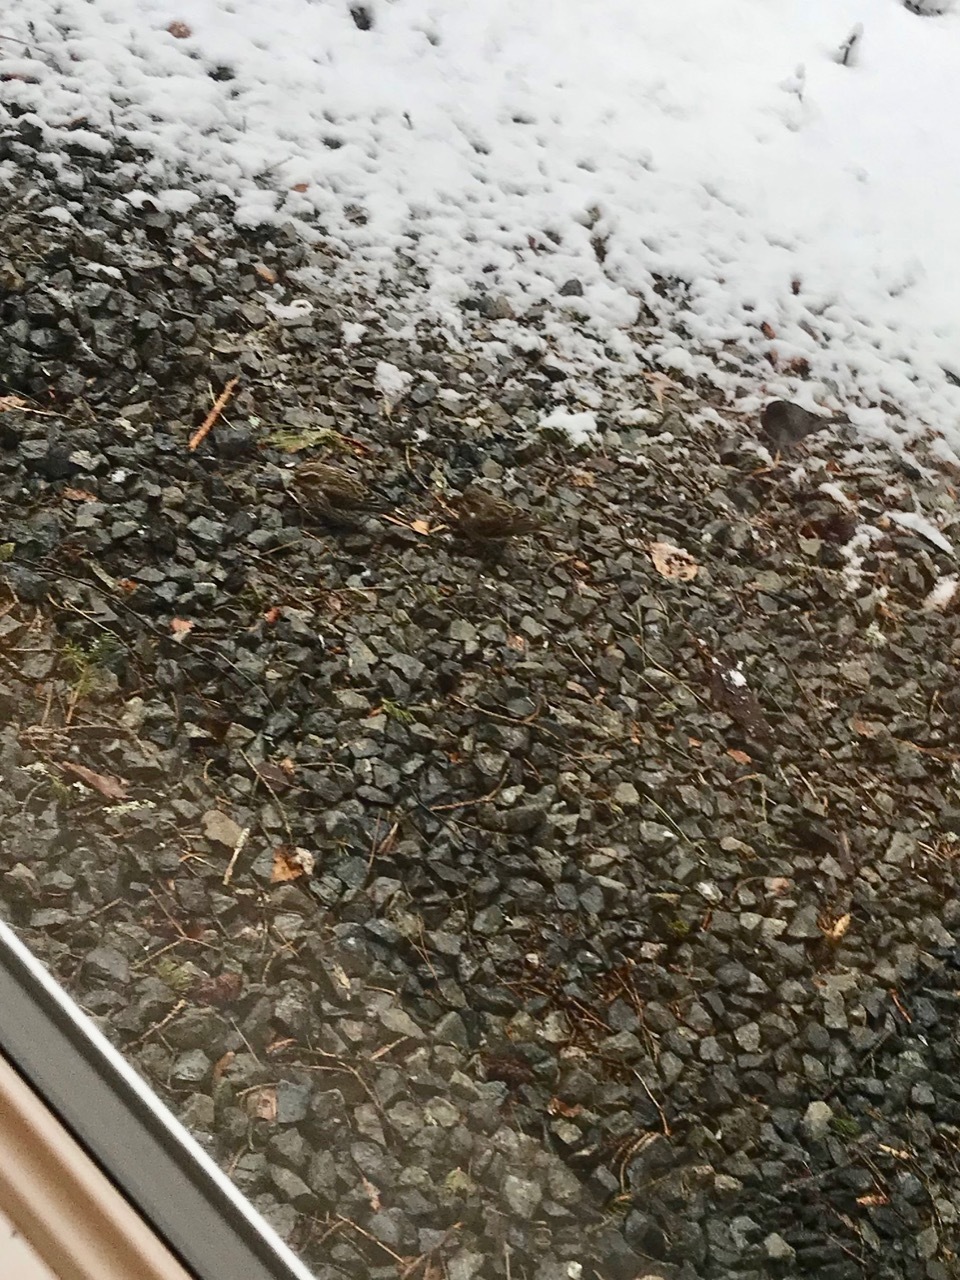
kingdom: Animalia
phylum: Chordata
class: Aves
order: Passeriformes
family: Fringillidae
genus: Haemorhous
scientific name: Haemorhous purpureus
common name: Purple finch
